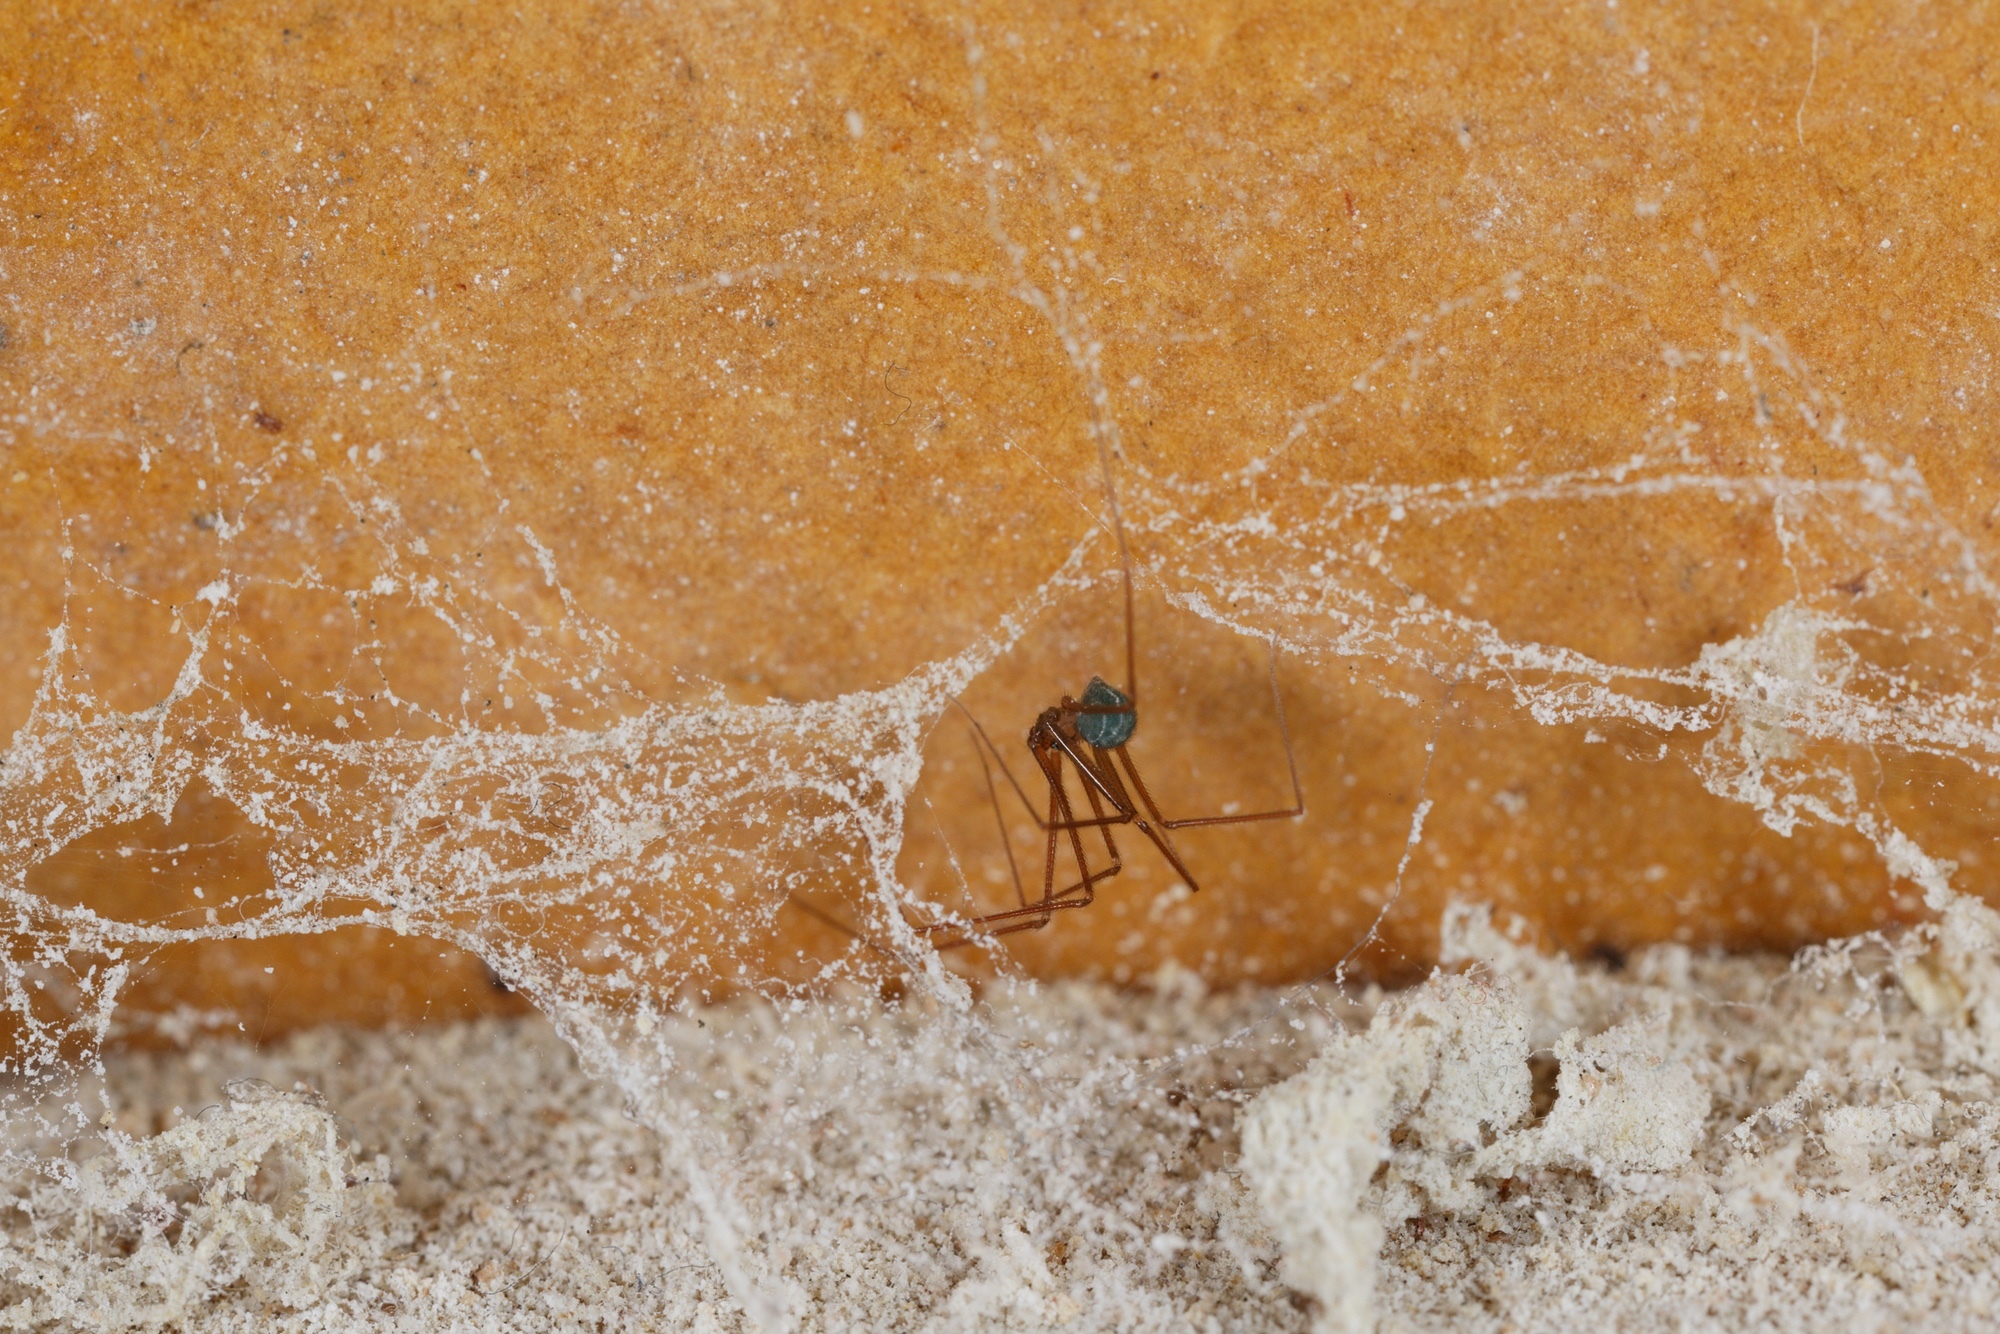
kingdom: Animalia
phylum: Arthropoda
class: Arachnida
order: Araneae
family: Pholcidae
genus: Psilochorus
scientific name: Psilochorus simoni
